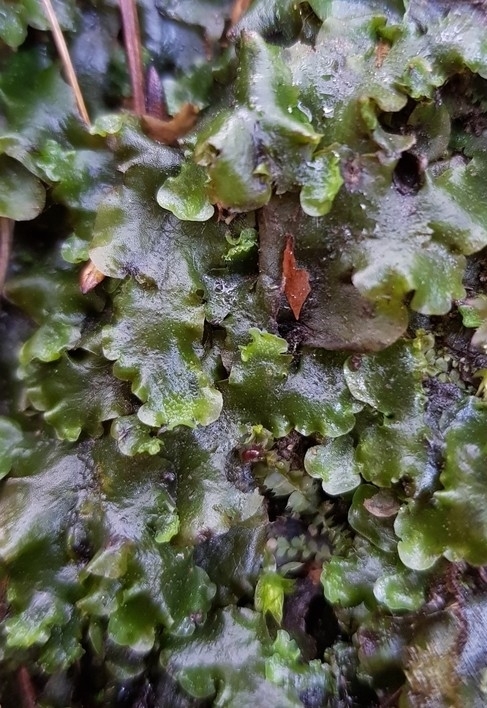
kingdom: Plantae
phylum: Marchantiophyta
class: Jungermanniopsida
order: Pelliales
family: Pelliaceae
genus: Apopellia
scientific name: Apopellia endiviifolia
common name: Endive pellia
